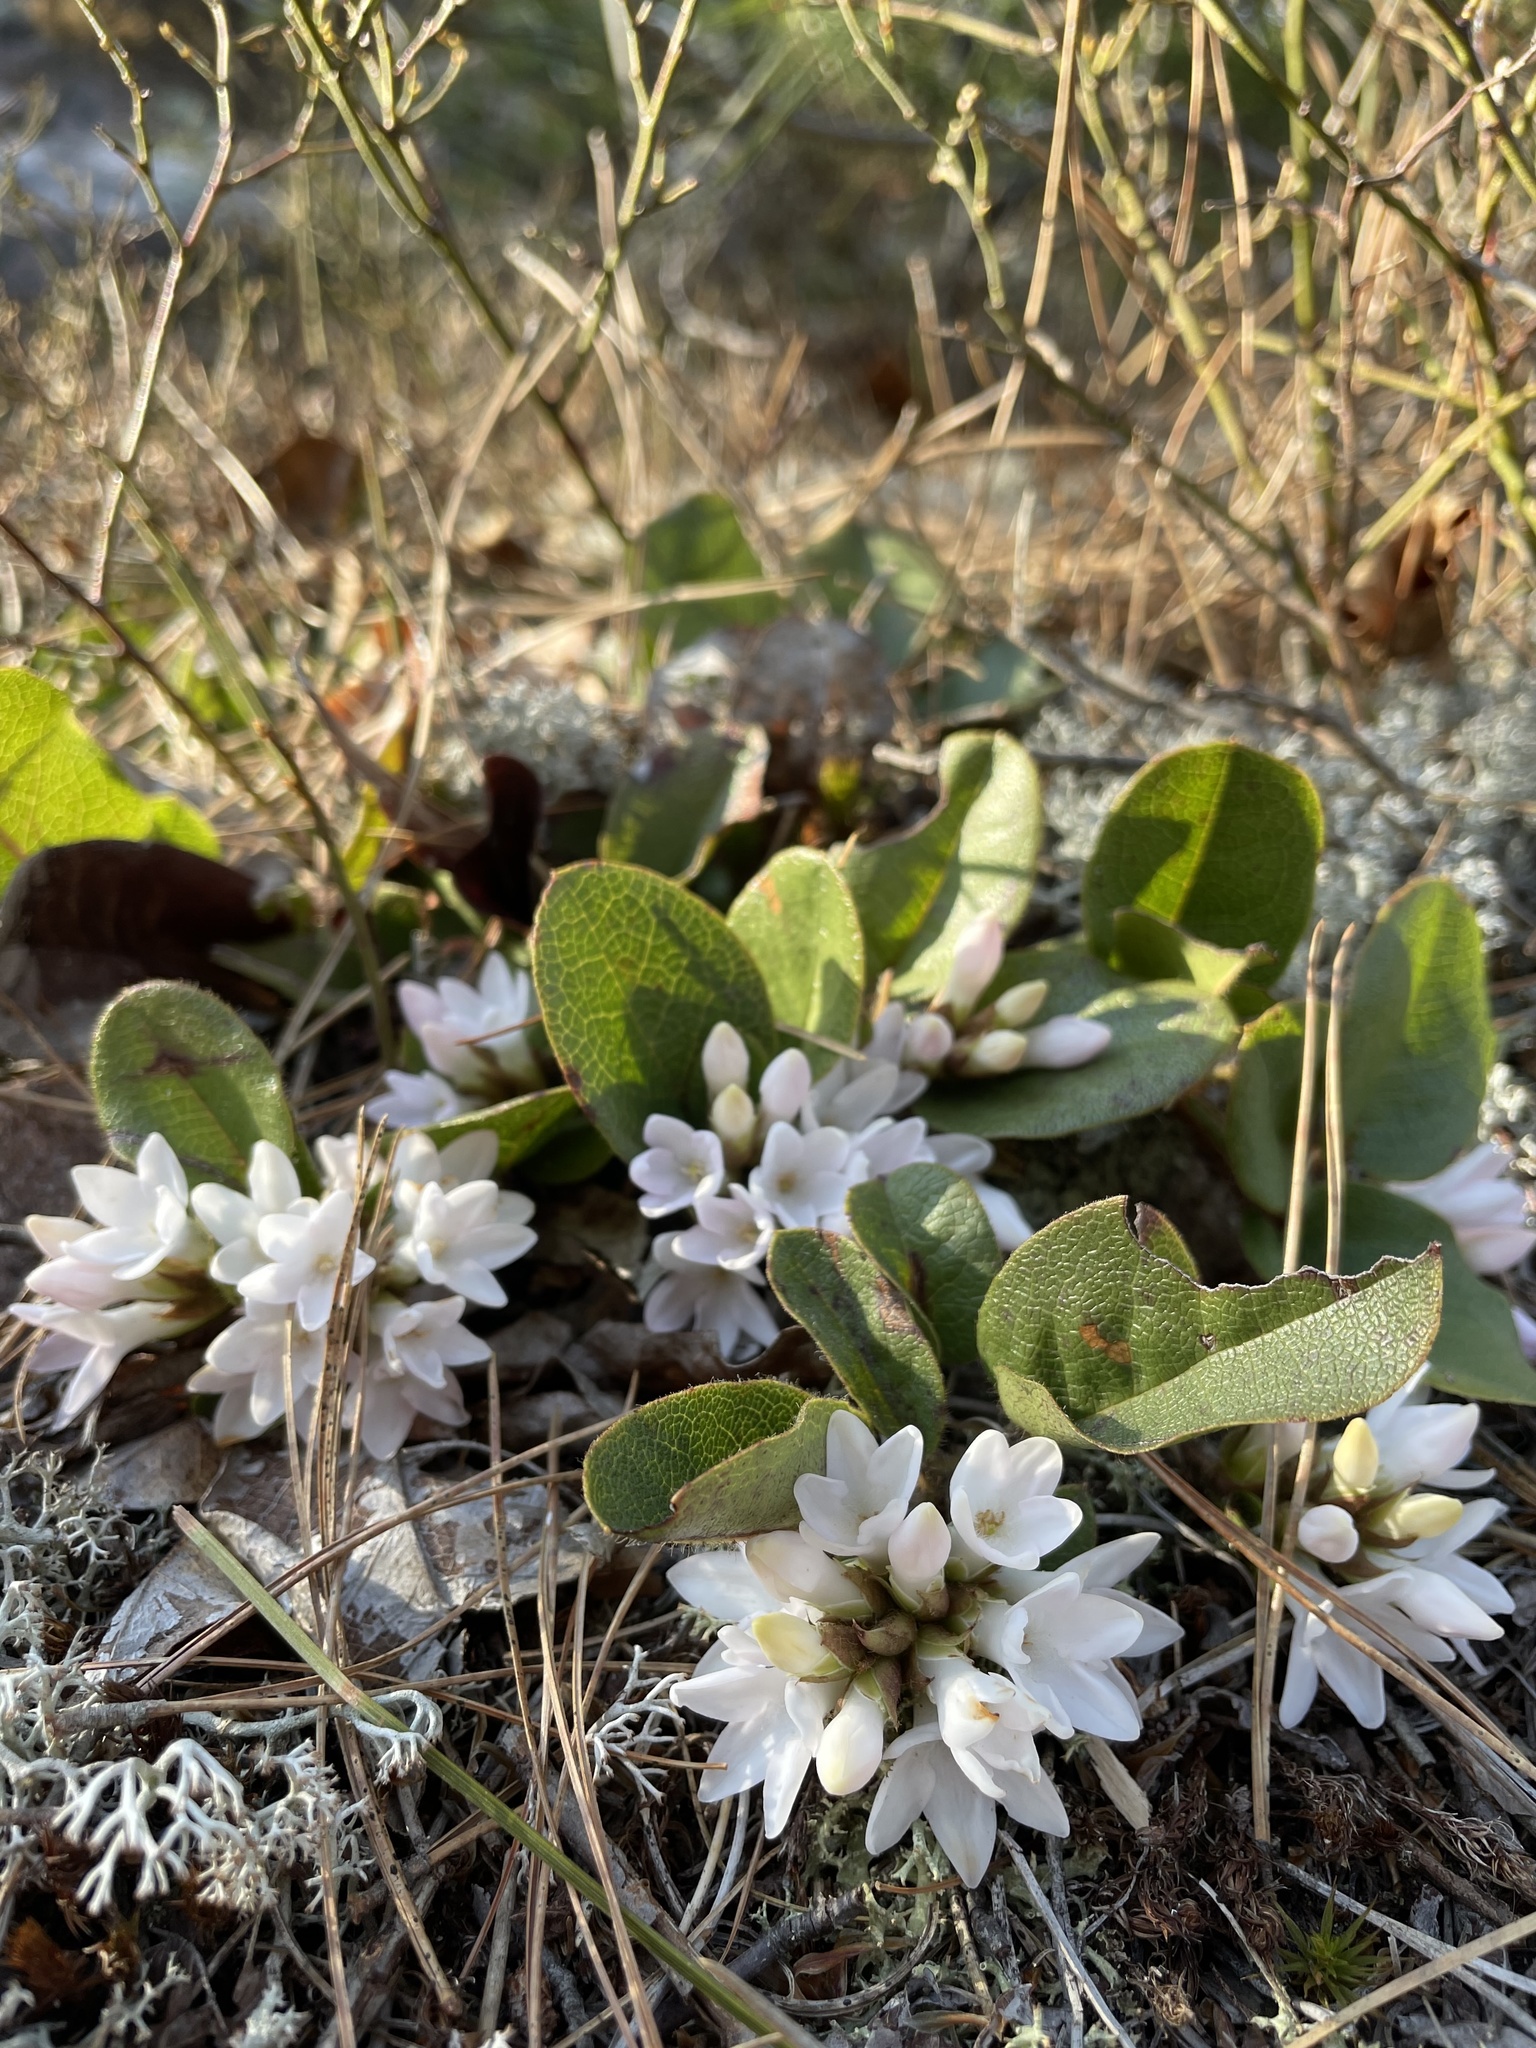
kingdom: Plantae
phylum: Tracheophyta
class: Magnoliopsida
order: Ericales
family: Ericaceae
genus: Epigaea
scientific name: Epigaea repens
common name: Gravelroot
